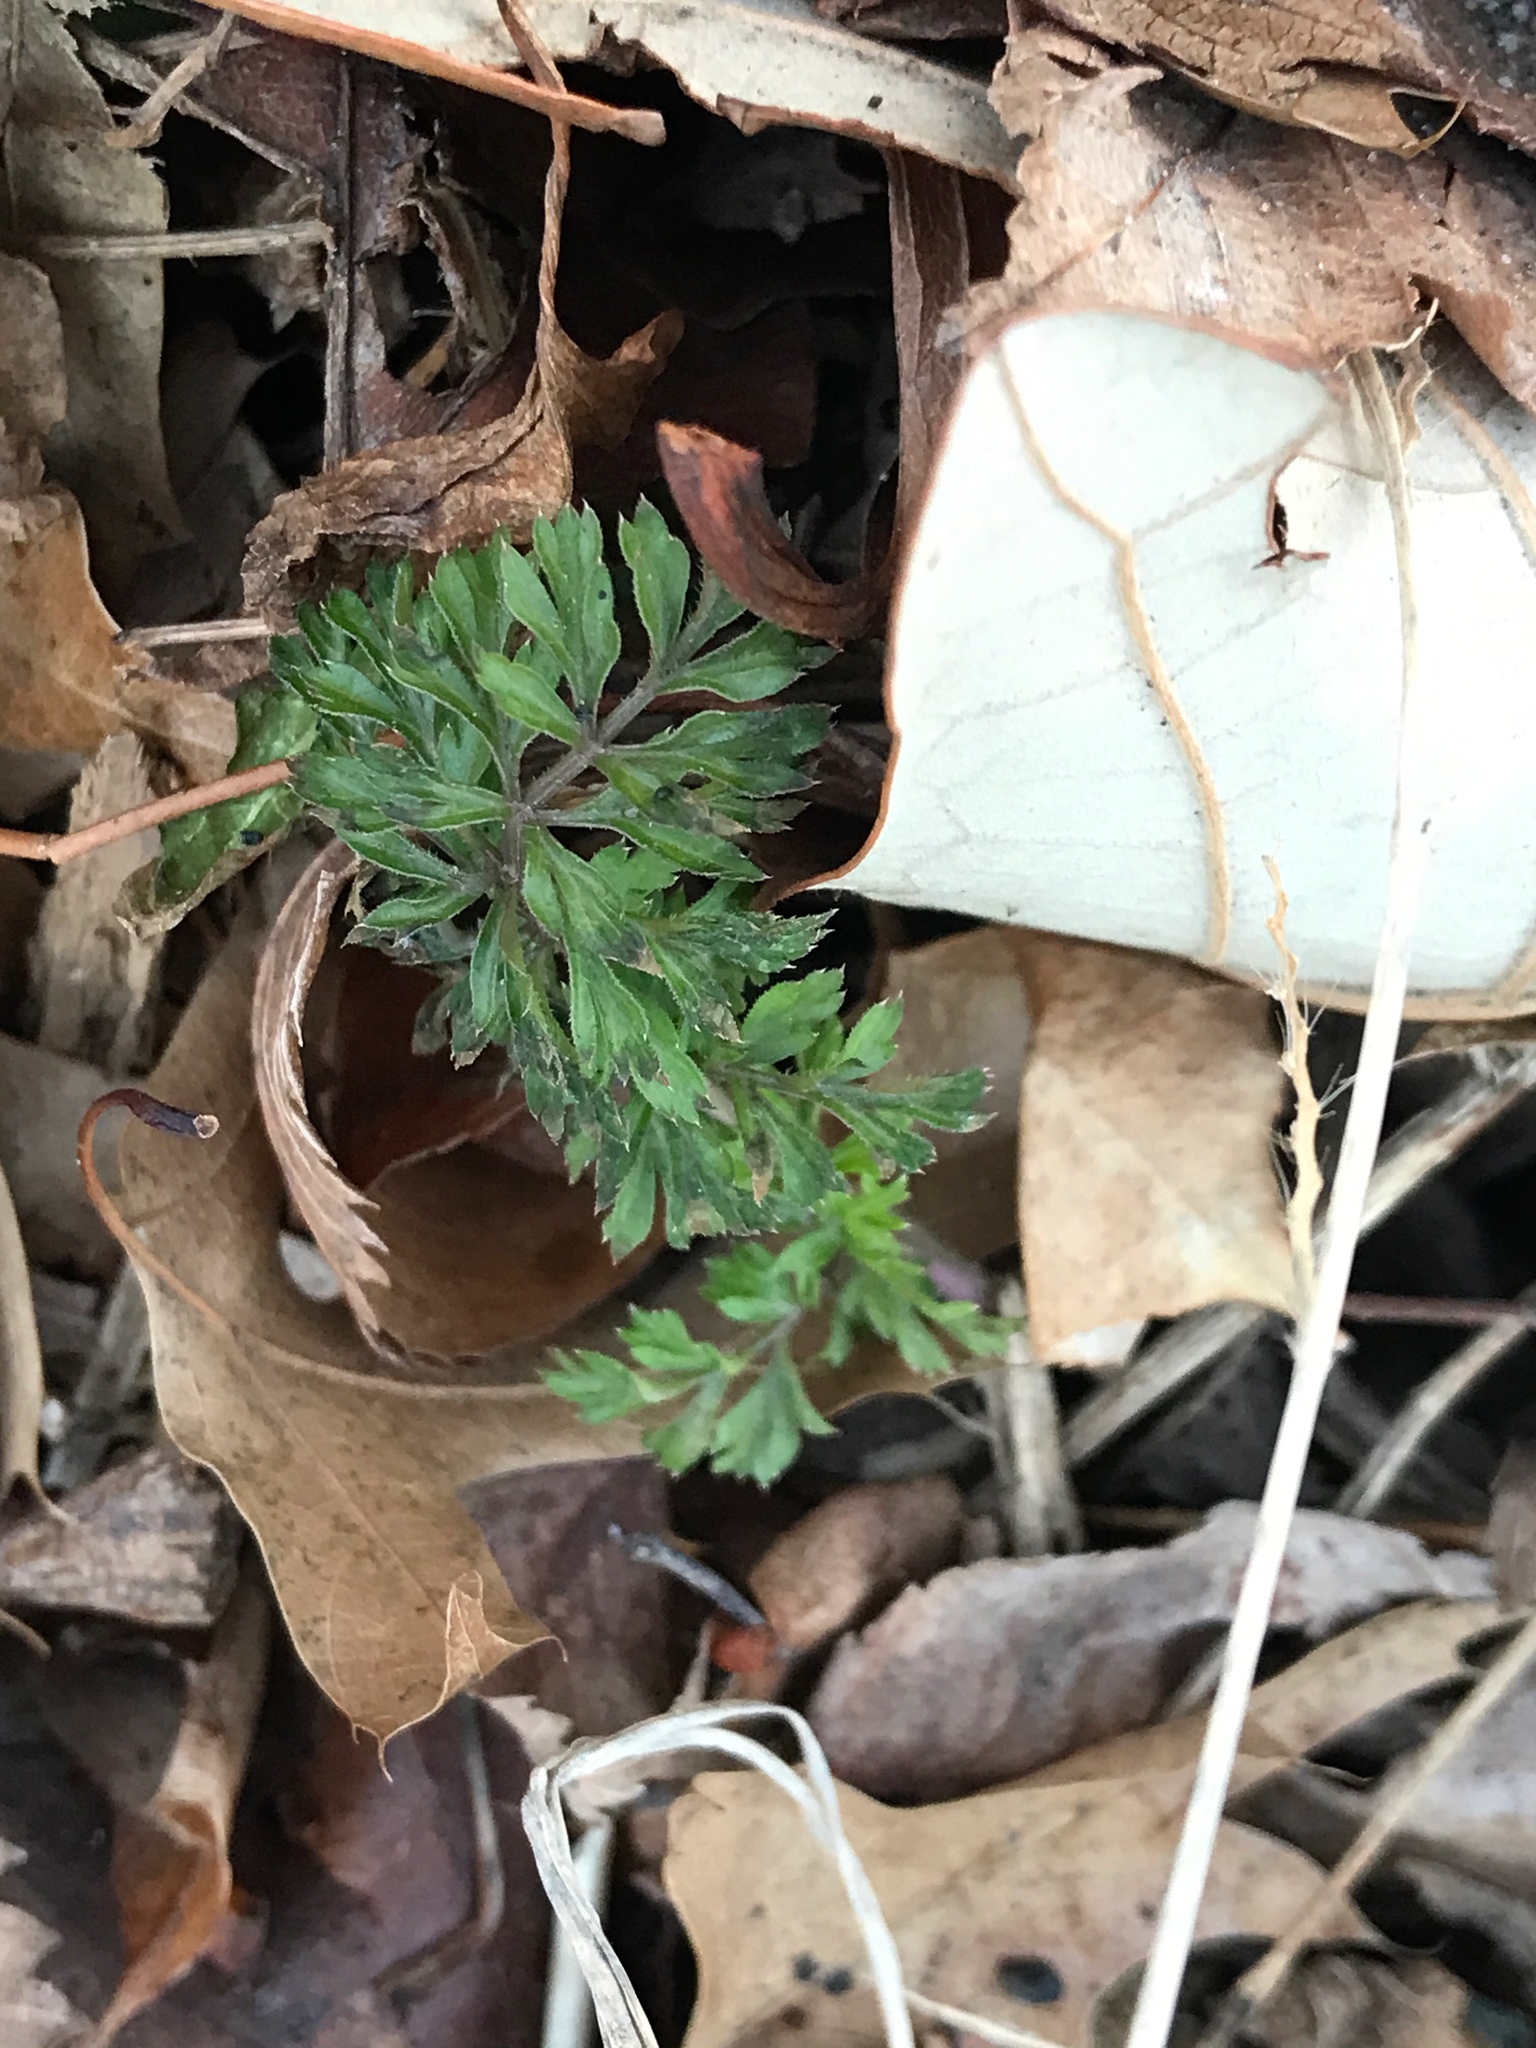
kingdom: Plantae
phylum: Tracheophyta
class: Magnoliopsida
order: Apiales
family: Apiaceae
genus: Daucus
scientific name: Daucus carota
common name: Wild carrot
